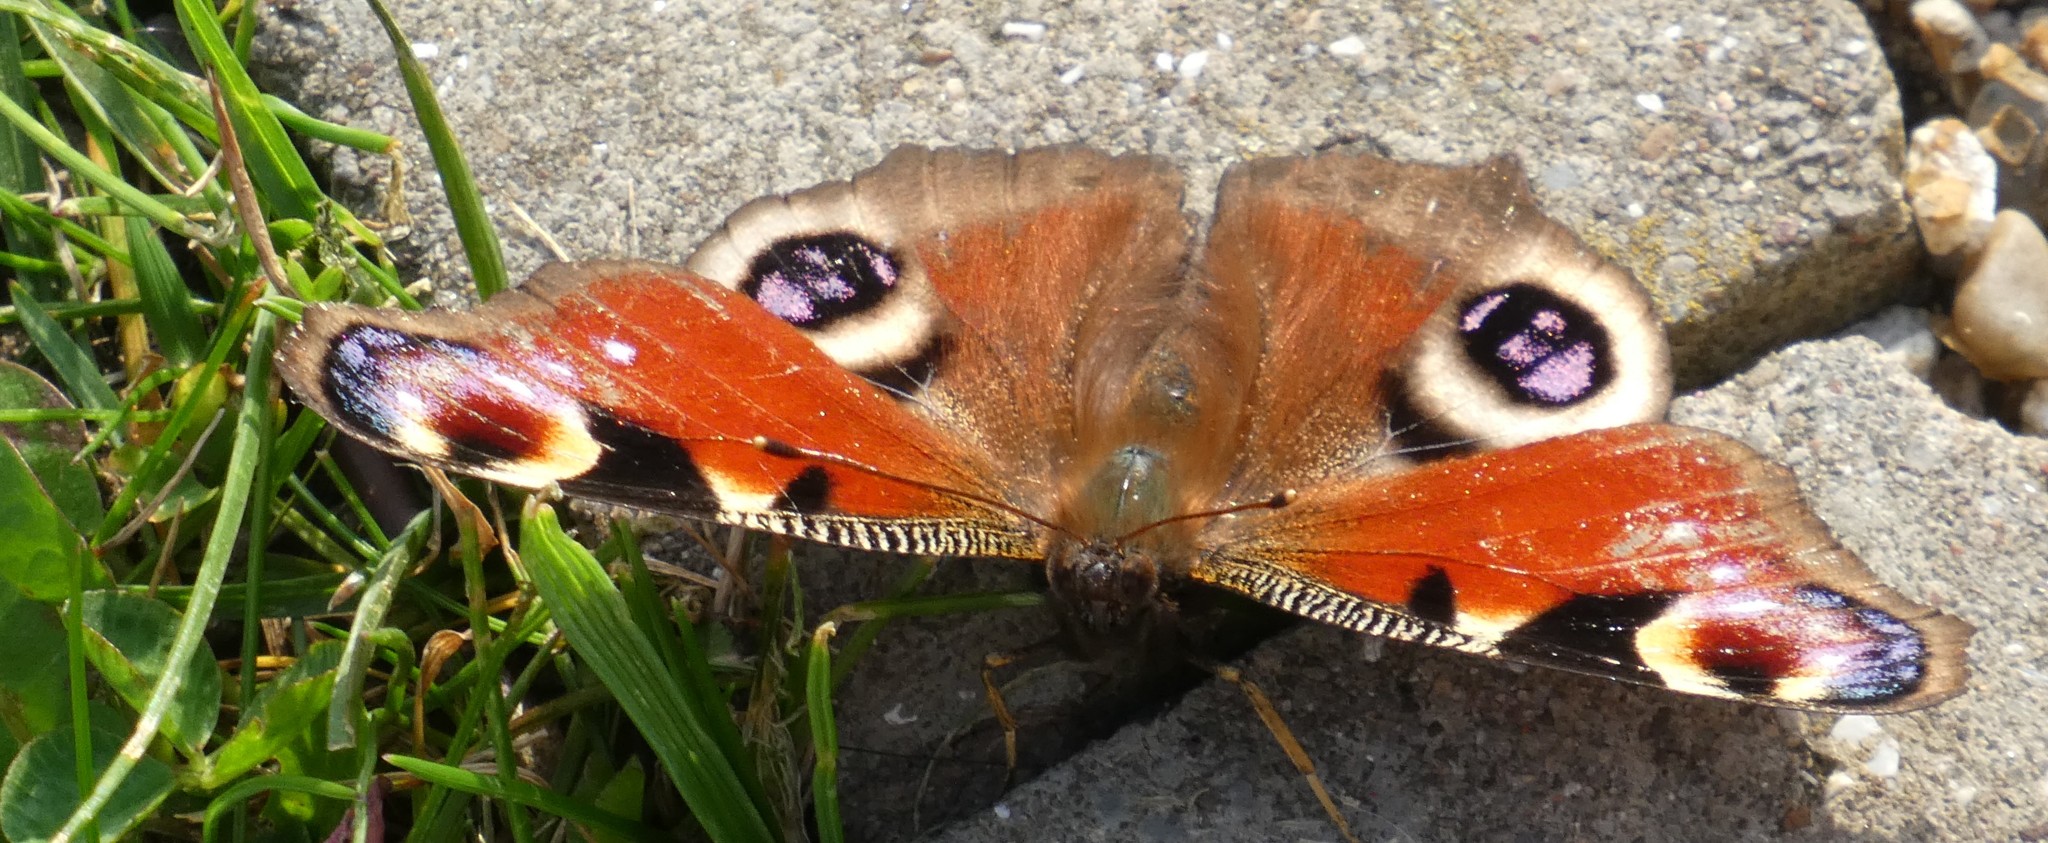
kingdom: Animalia
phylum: Arthropoda
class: Insecta
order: Lepidoptera
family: Nymphalidae
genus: Aglais
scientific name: Aglais io
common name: Peacock
